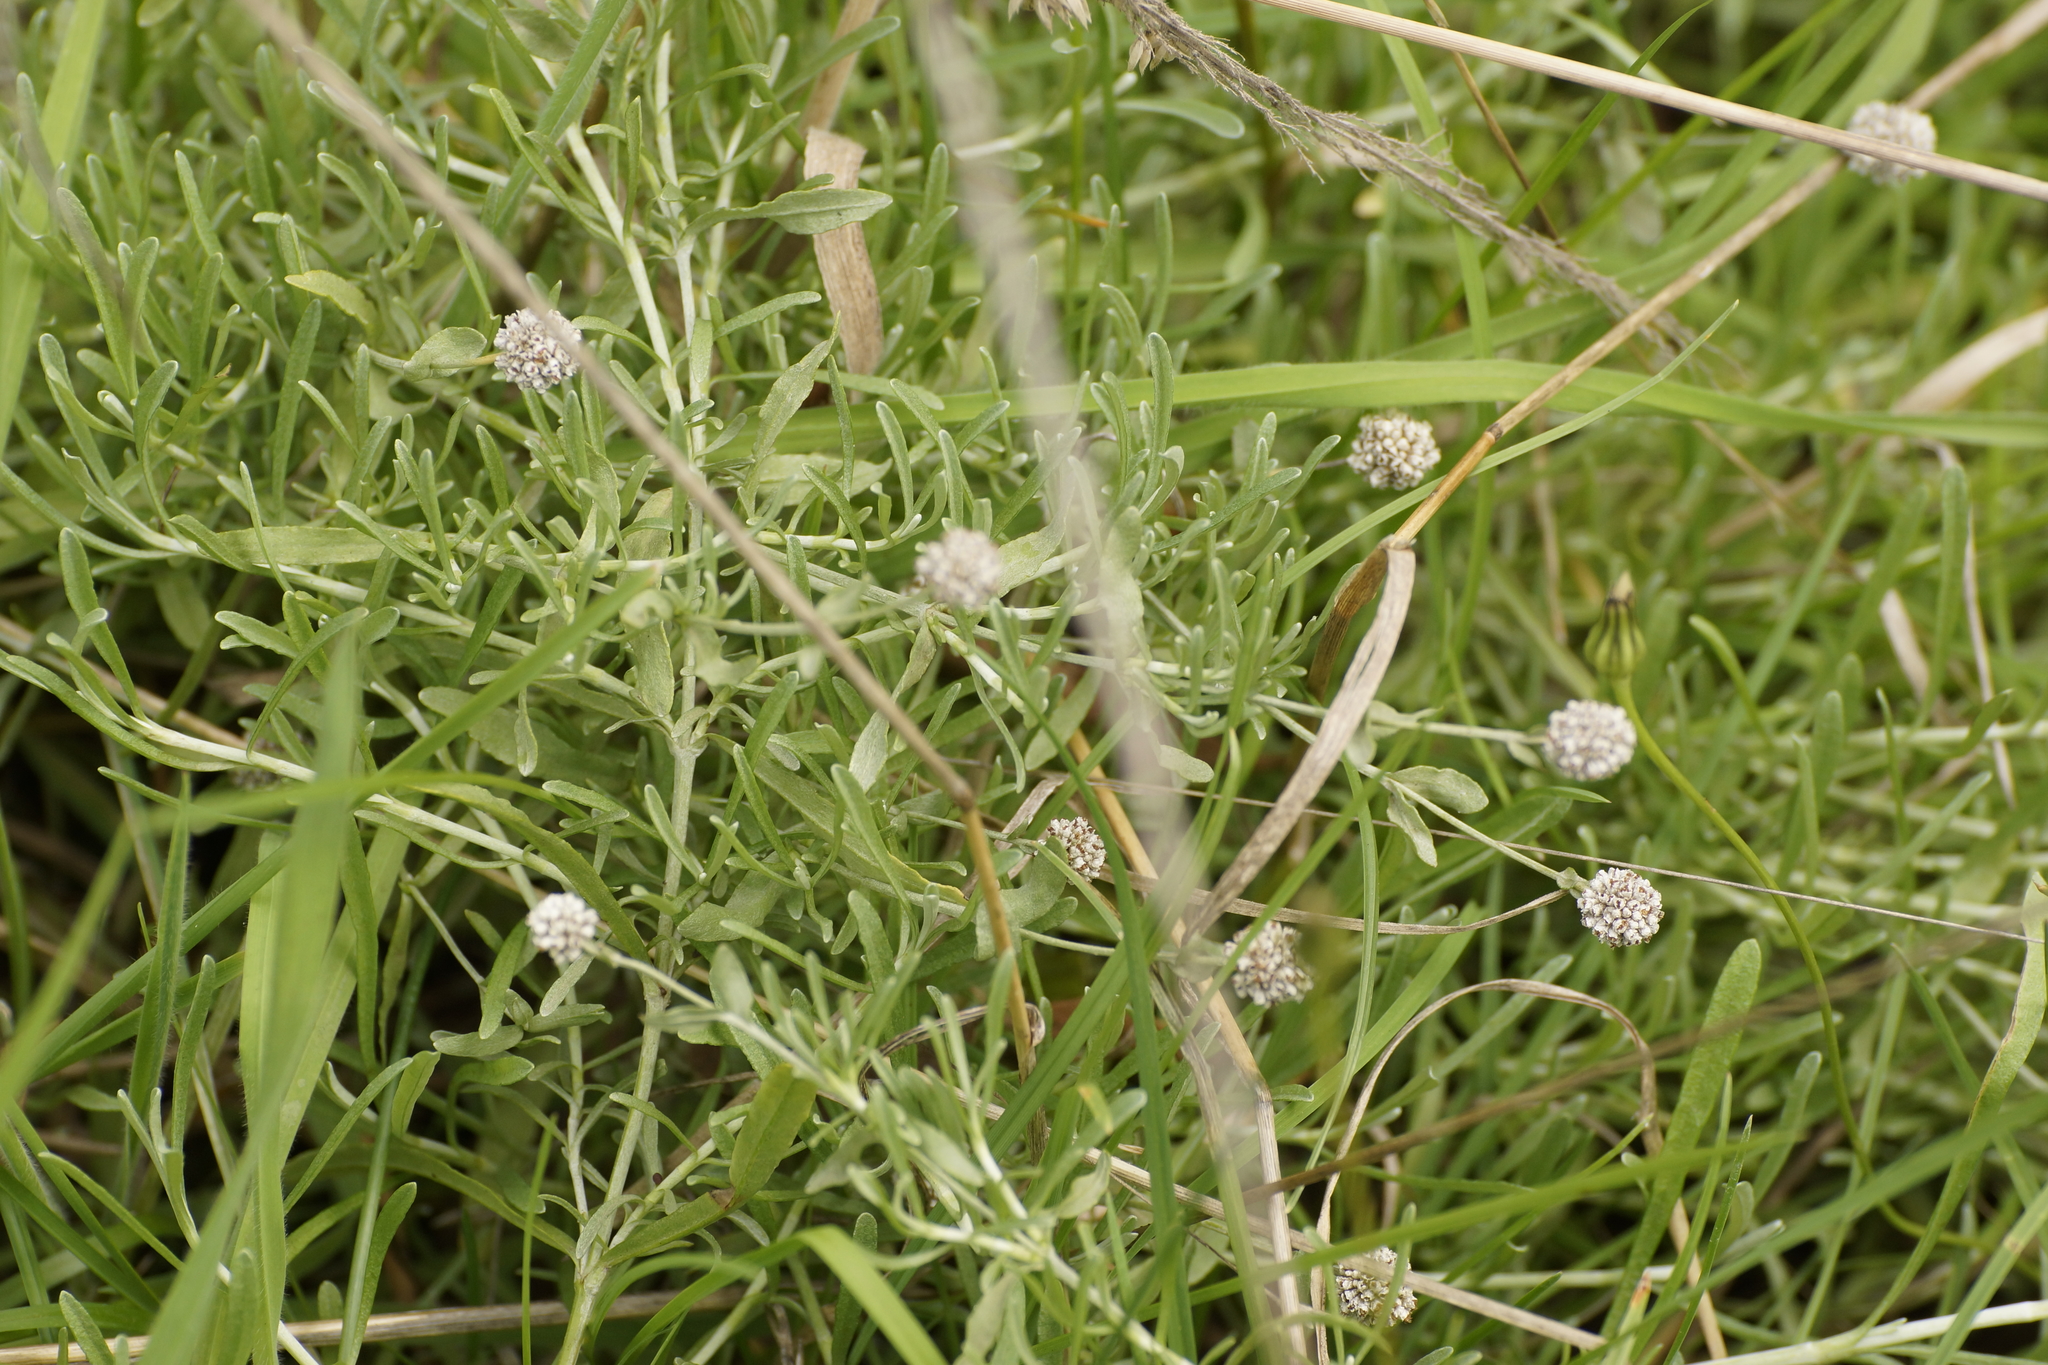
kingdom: Plantae
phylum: Tracheophyta
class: Magnoliopsida
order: Asterales
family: Asteraceae
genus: Calocephalus
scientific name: Calocephalus lacteus
